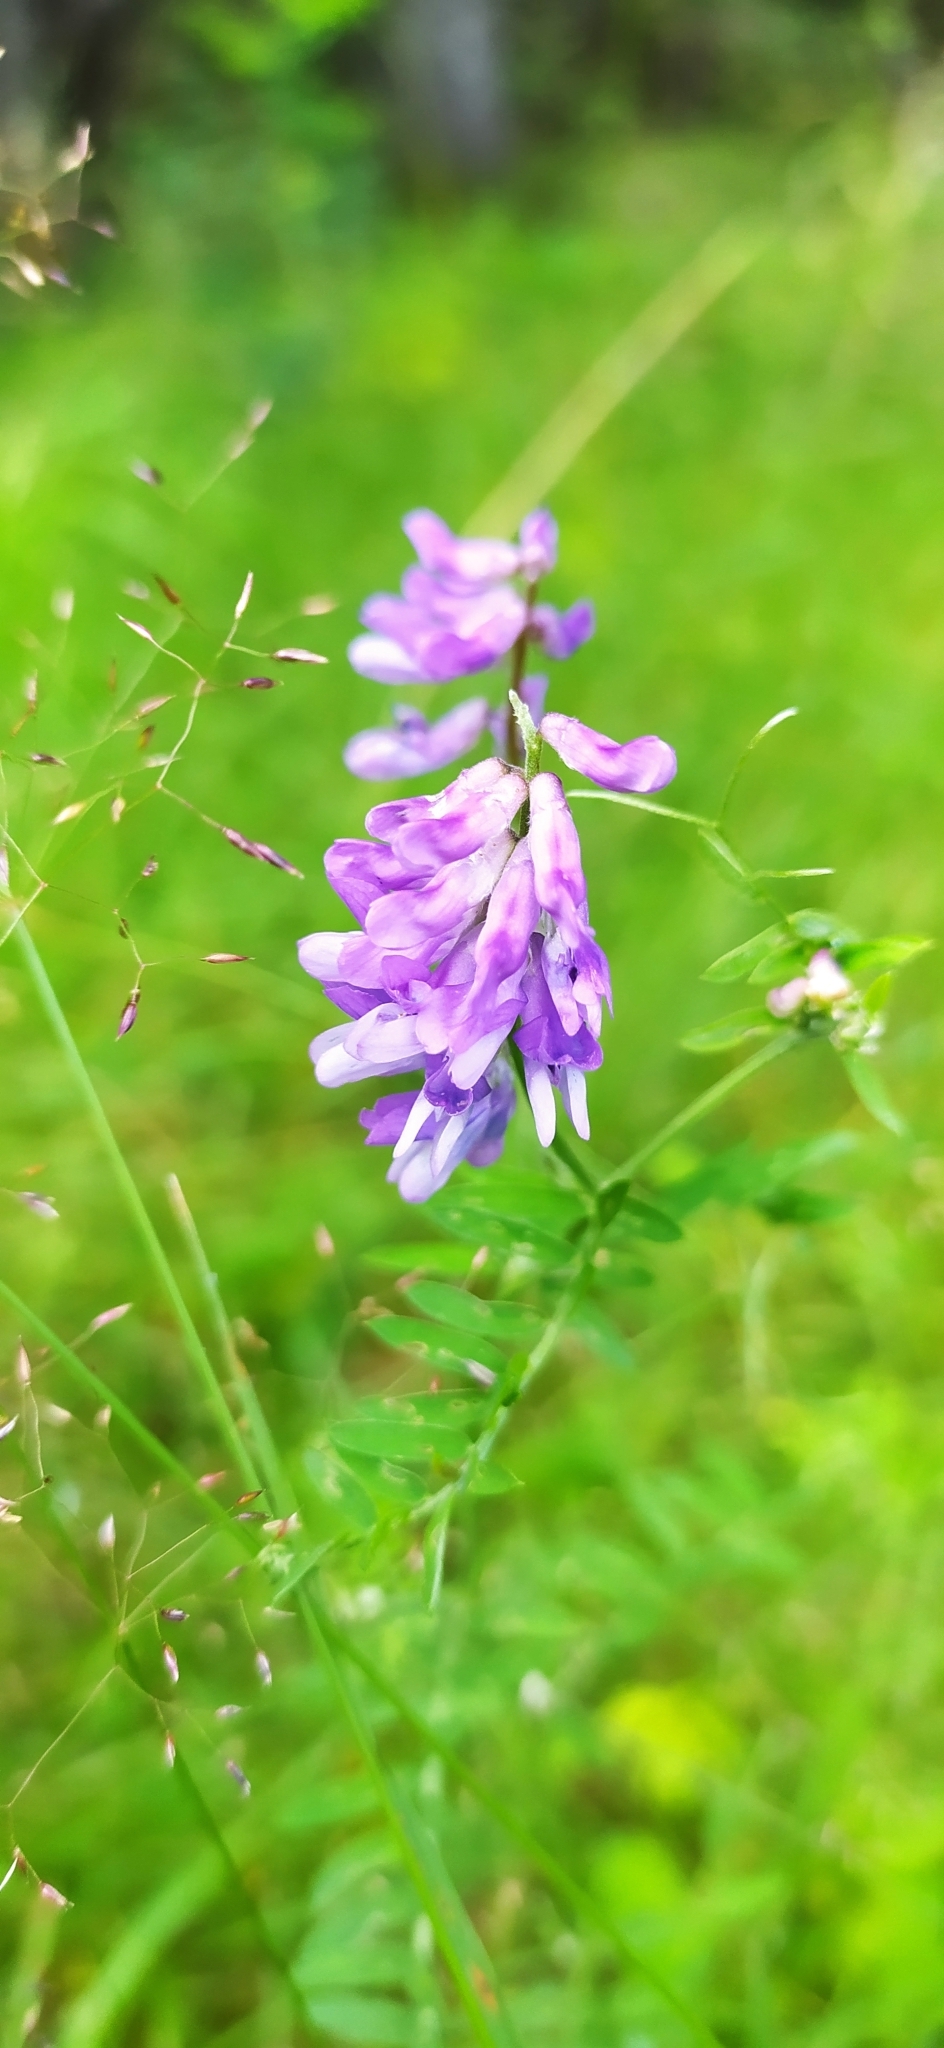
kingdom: Plantae
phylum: Tracheophyta
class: Magnoliopsida
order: Fabales
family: Fabaceae
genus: Vicia
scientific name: Vicia cracca
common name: Bird vetch
